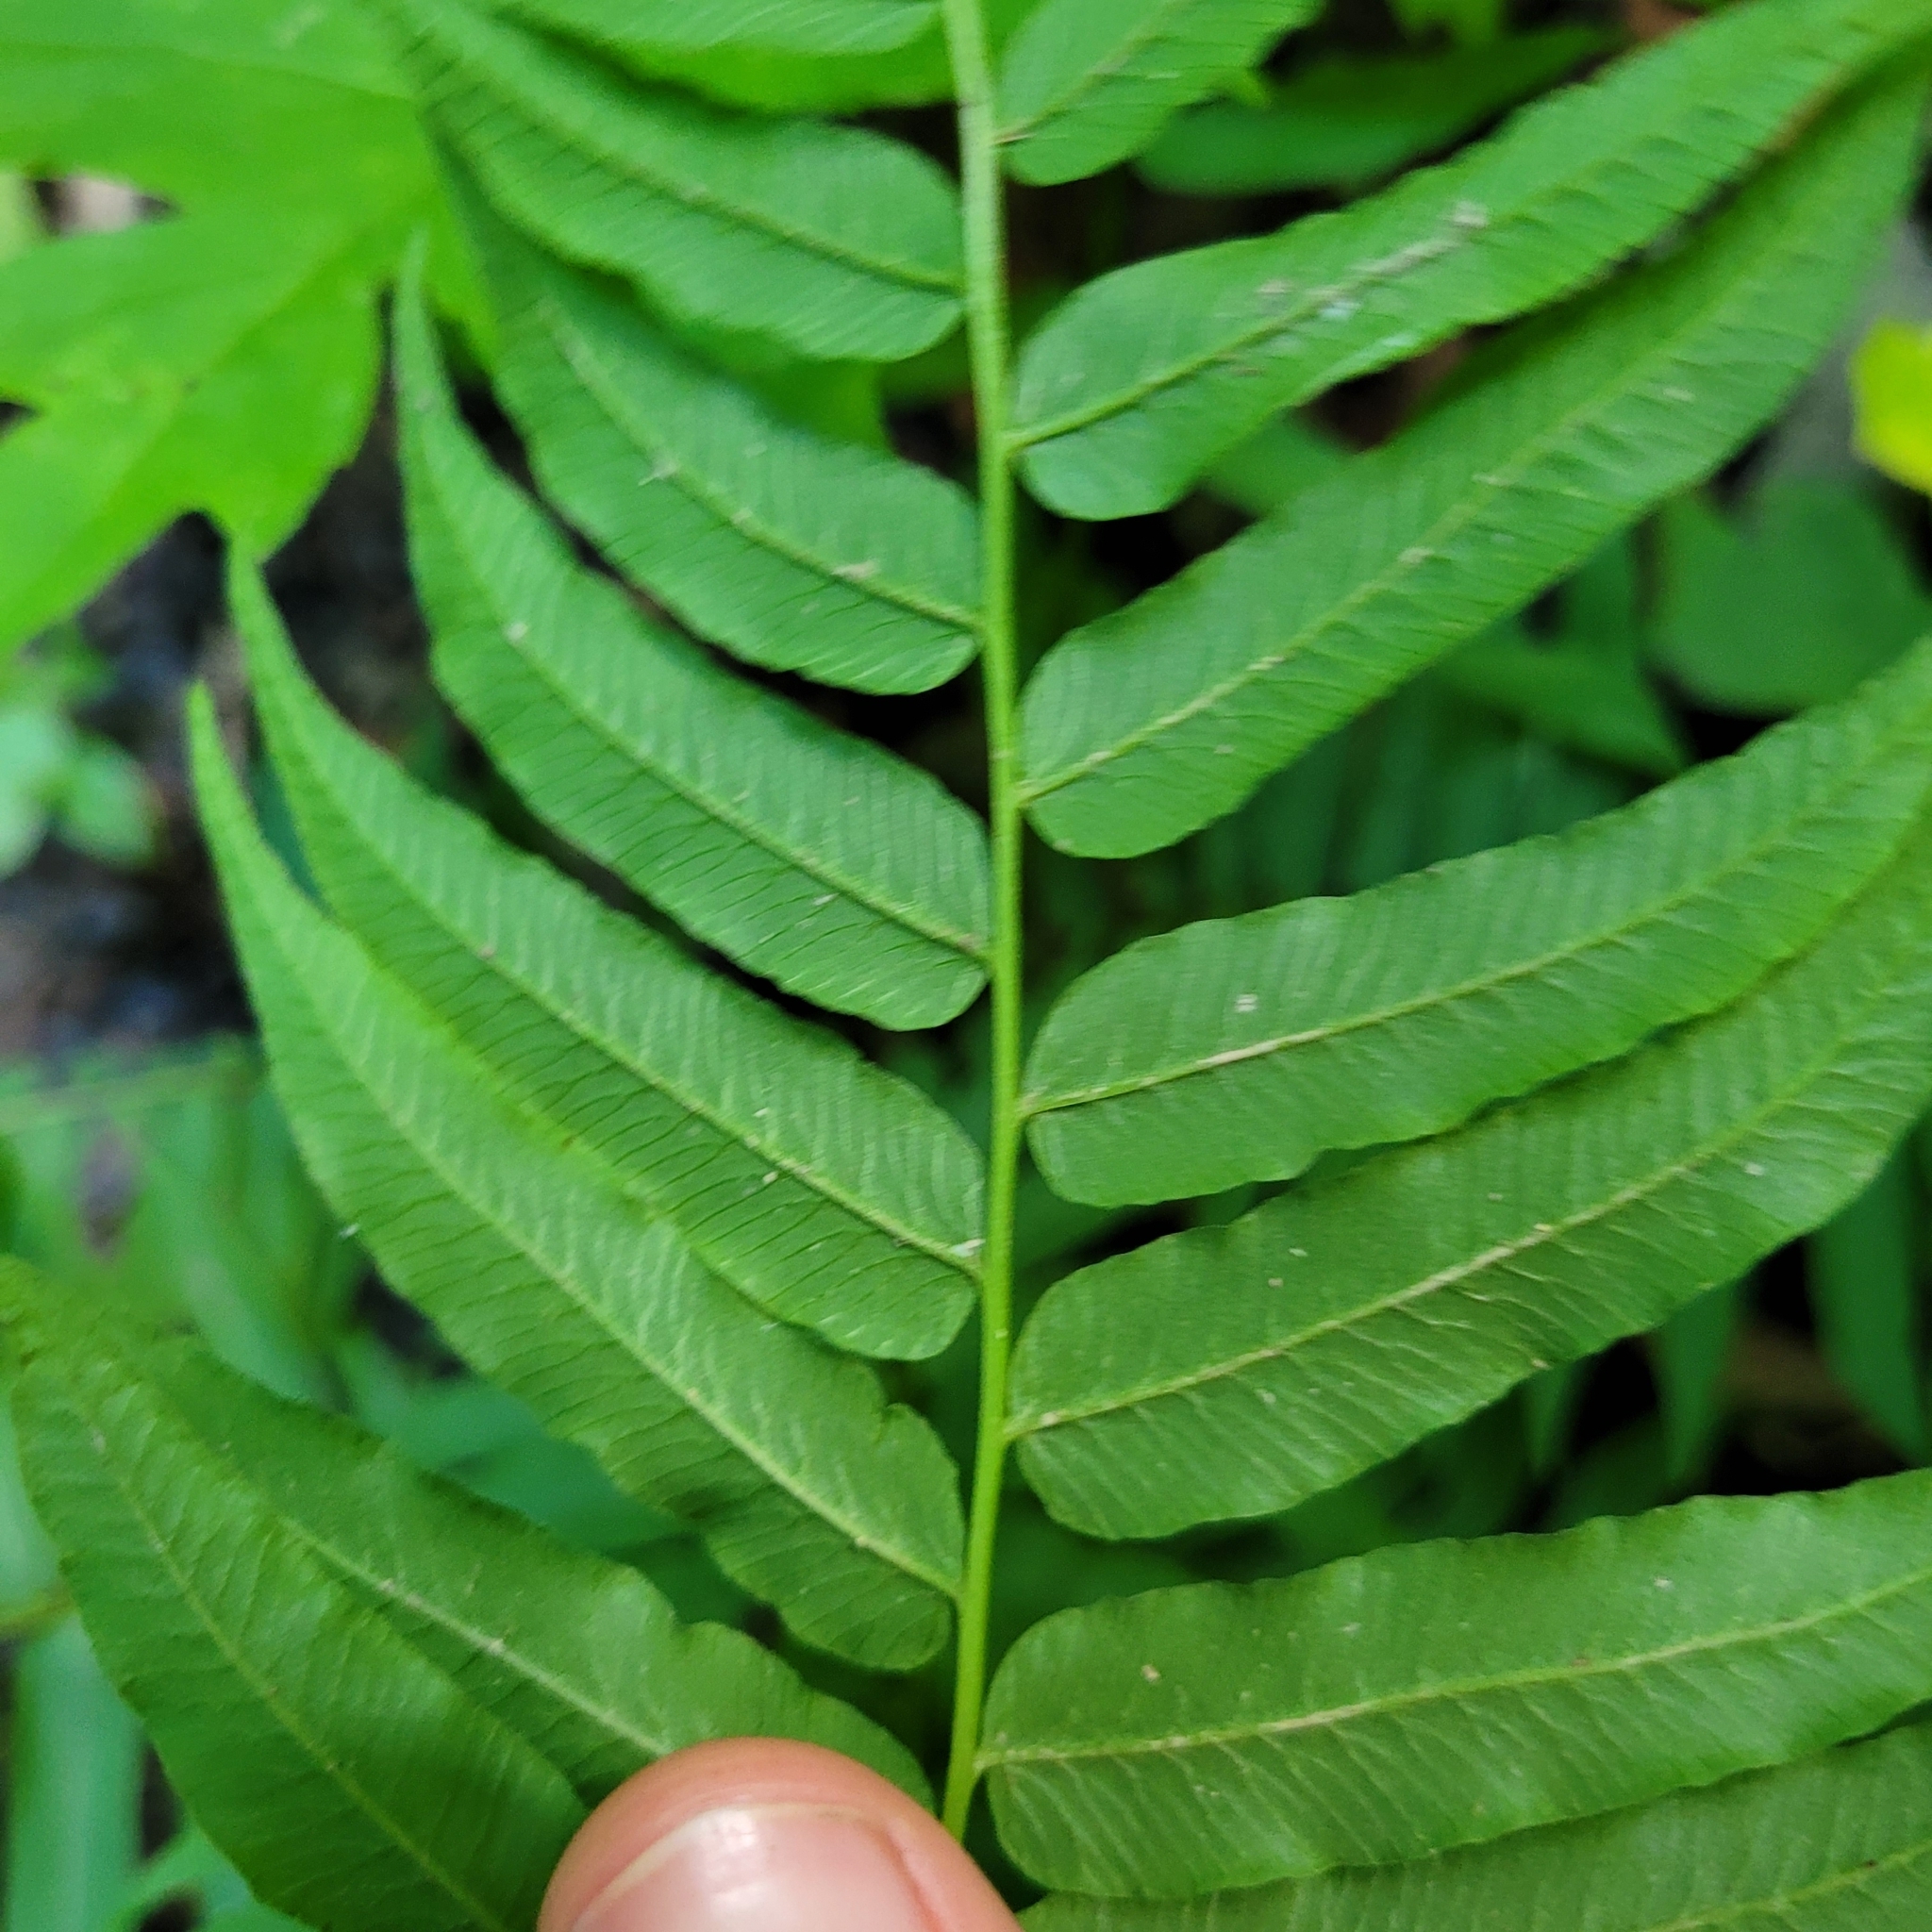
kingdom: Plantae
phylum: Tracheophyta
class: Polypodiopsida
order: Polypodiales
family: Diplaziopsidaceae
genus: Homalosorus
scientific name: Homalosorus pycnocarpos
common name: Glade fern
